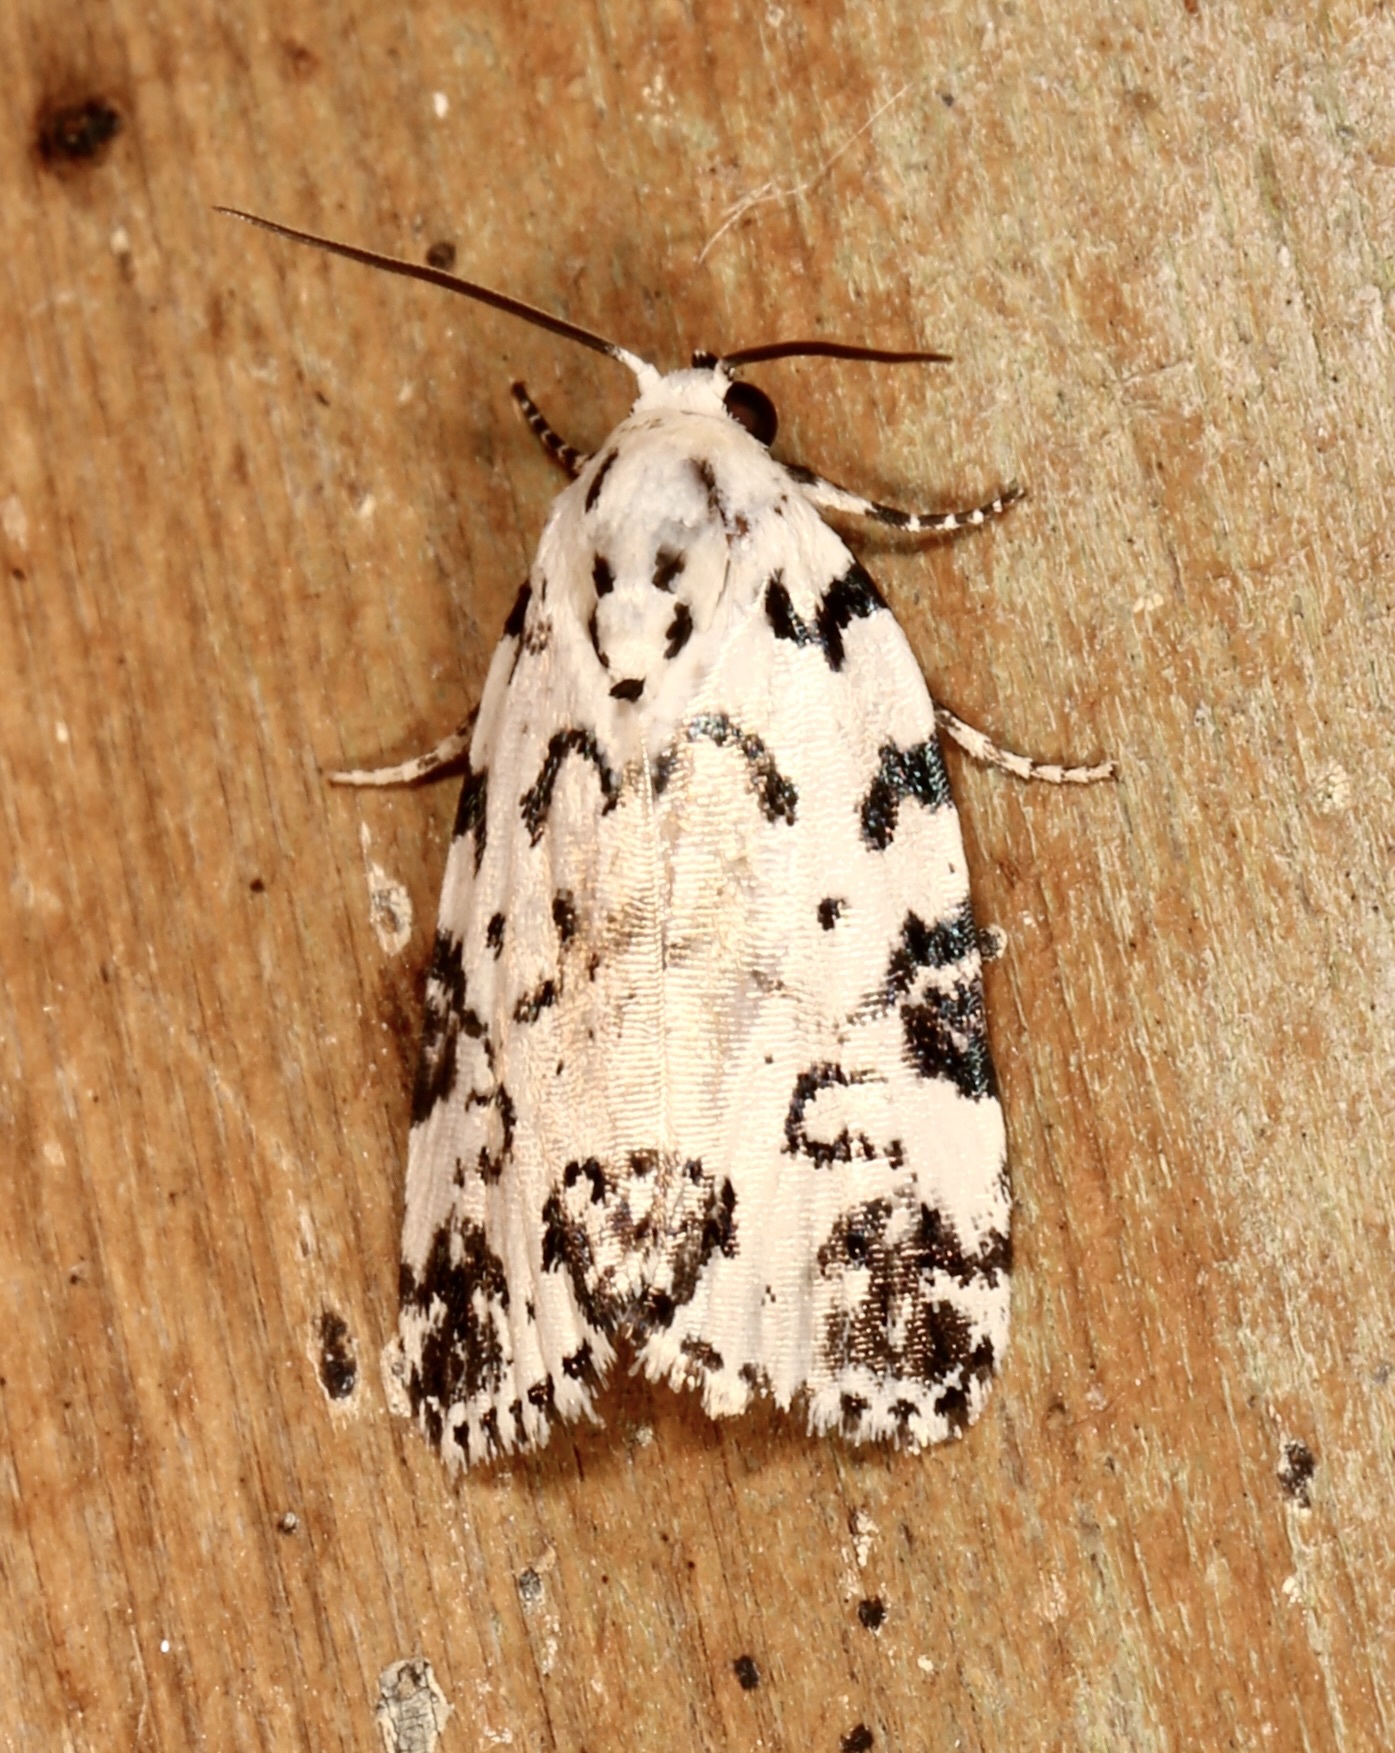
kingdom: Animalia
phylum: Arthropoda
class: Insecta
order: Lepidoptera
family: Noctuidae
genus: Polygrammate
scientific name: Polygrammate hebraeicum
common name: Hebrew moth
